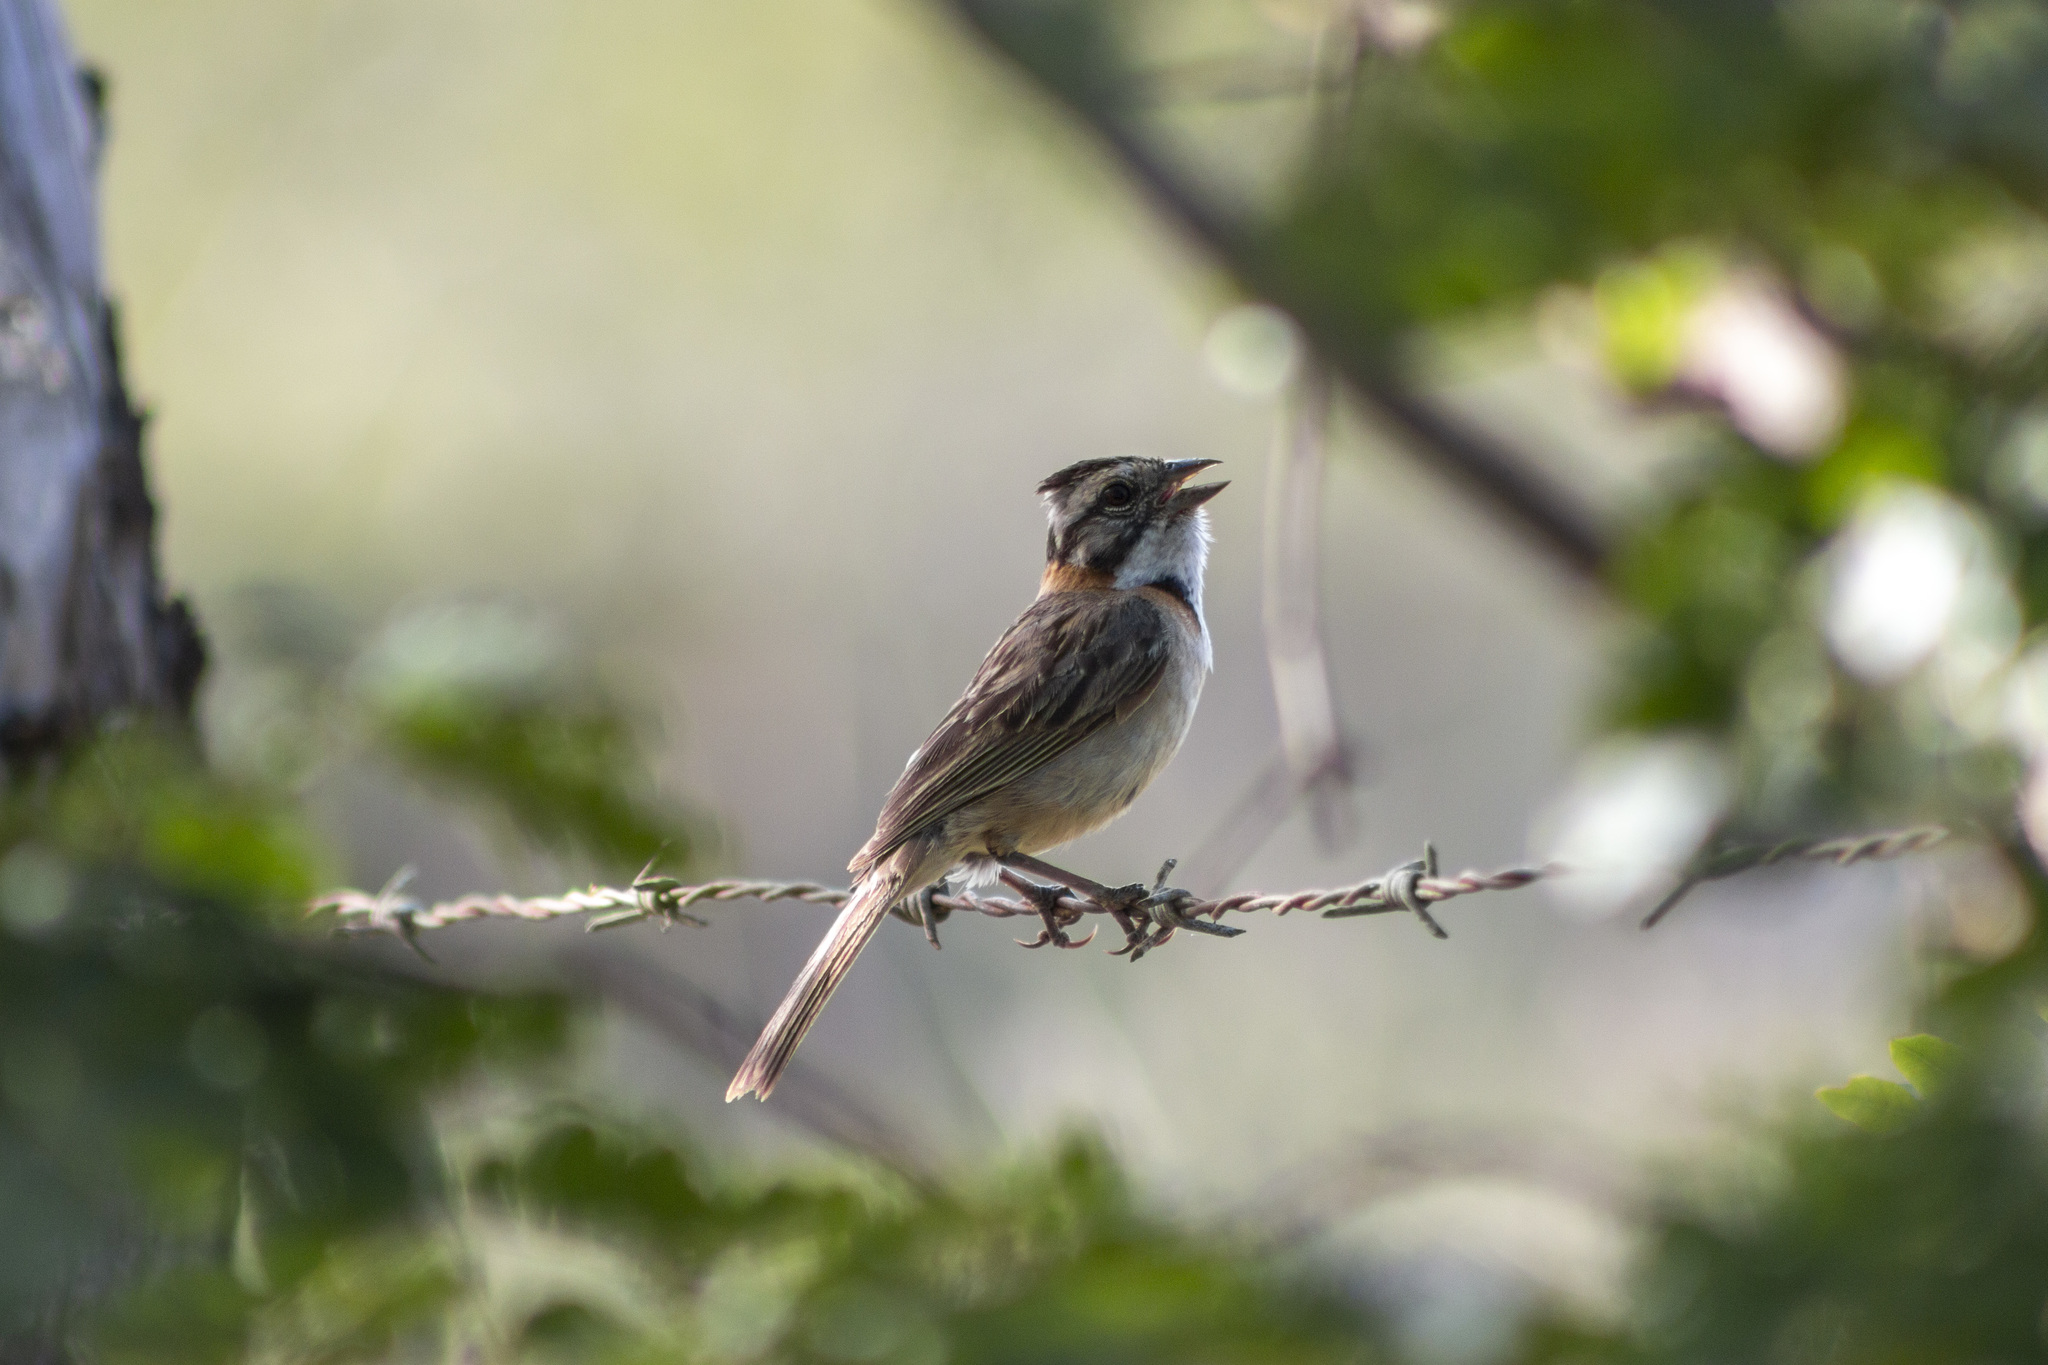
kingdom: Animalia
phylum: Chordata
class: Aves
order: Passeriformes
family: Passerellidae
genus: Zonotrichia
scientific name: Zonotrichia capensis
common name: Rufous-collared sparrow
